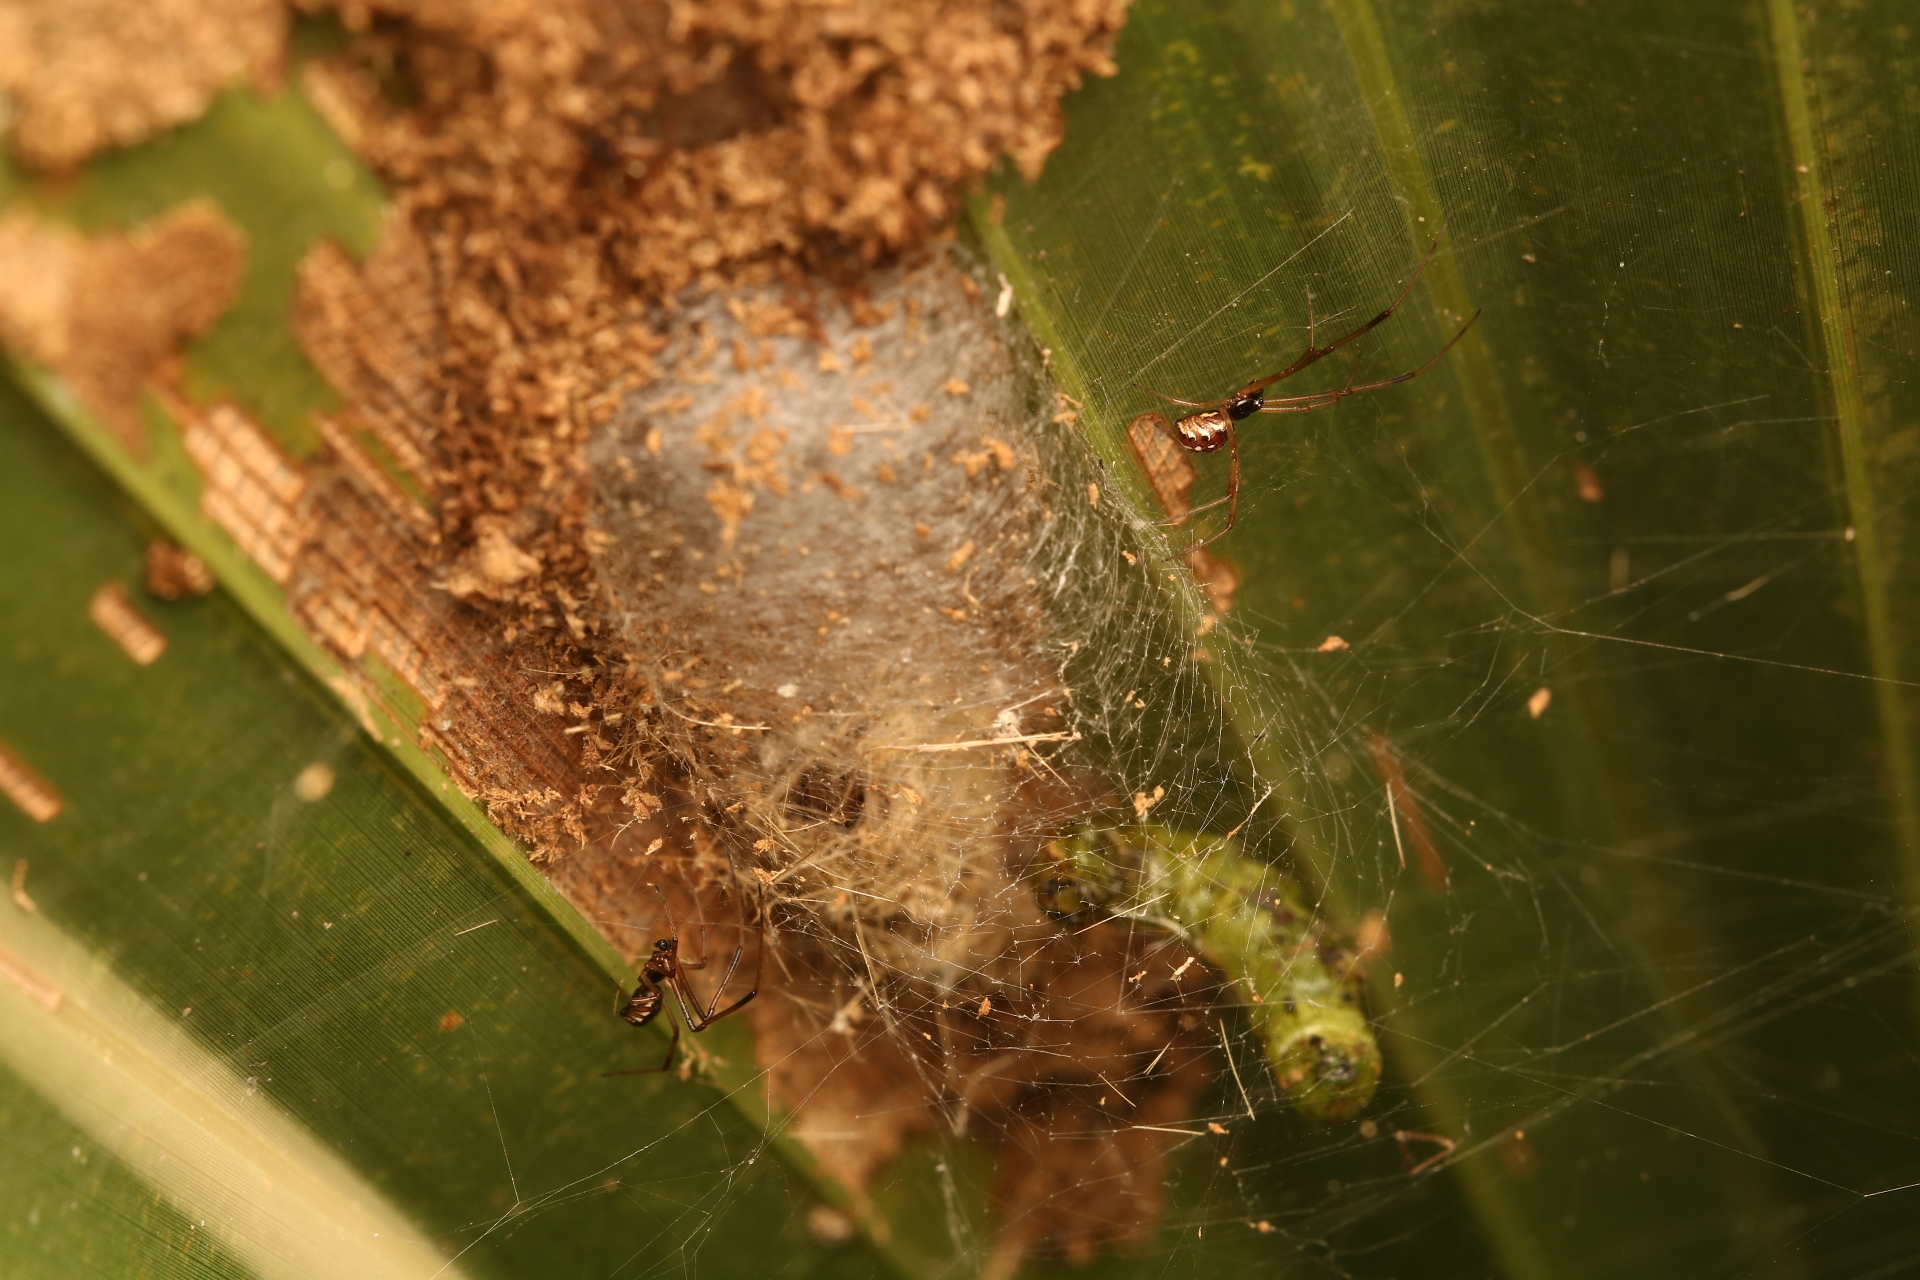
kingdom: Animalia
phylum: Arthropoda
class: Arachnida
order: Araneae
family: Theridiidae
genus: Latrodectus
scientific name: Latrodectus geometricus
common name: Brown widow spider
